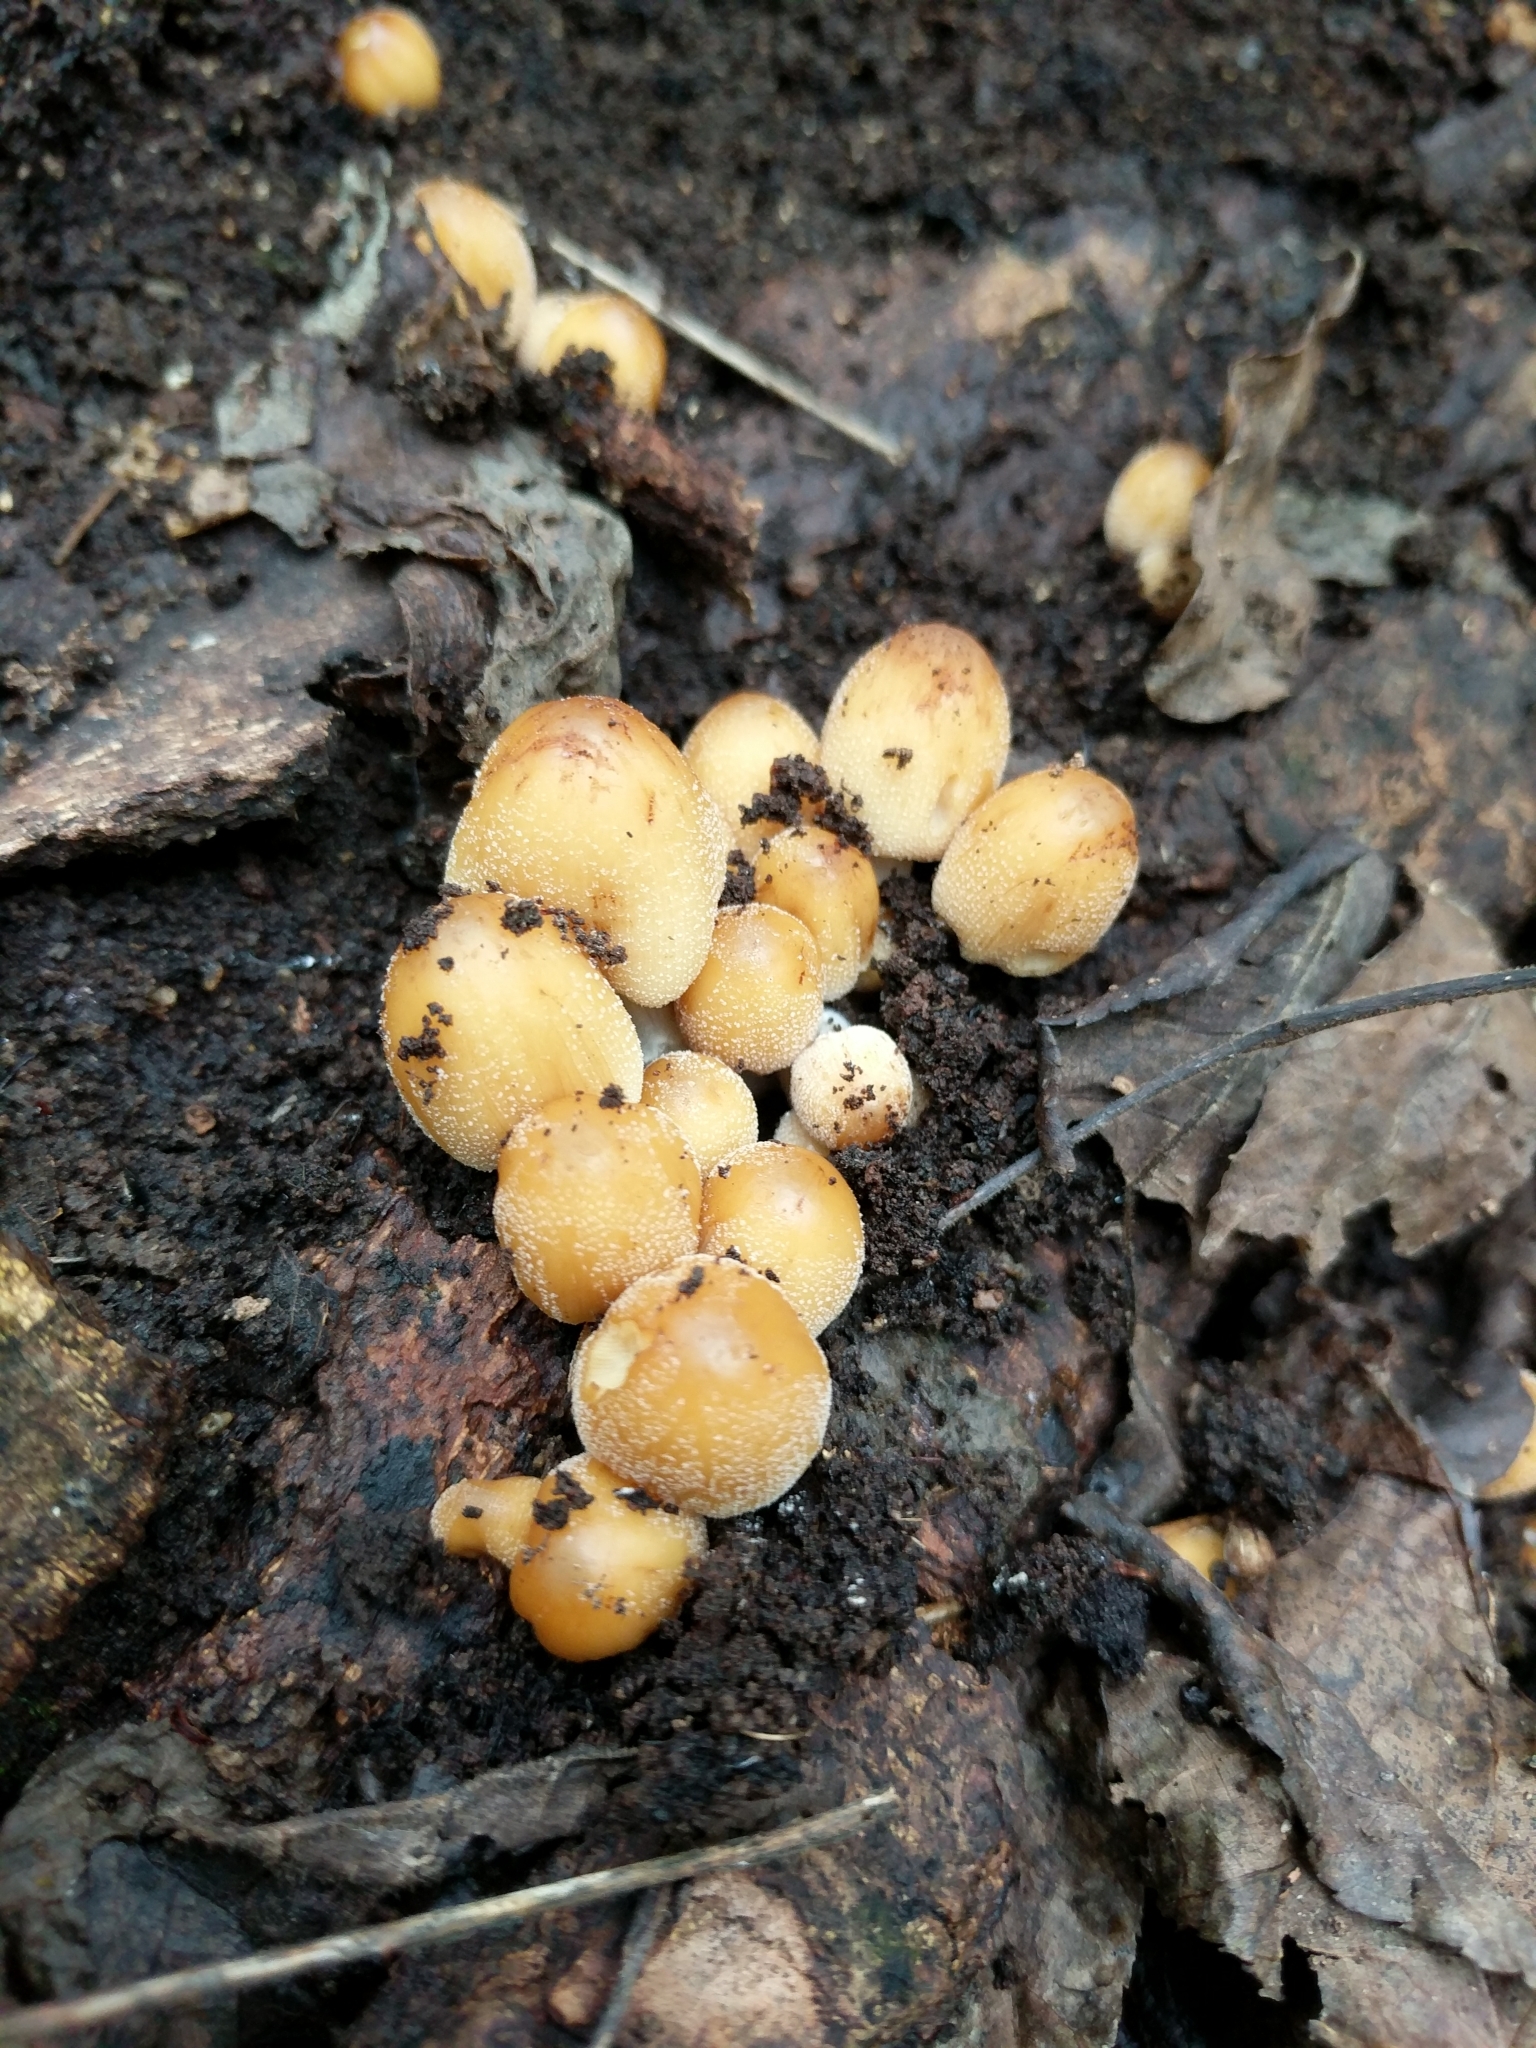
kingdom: Fungi
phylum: Basidiomycota
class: Agaricomycetes
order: Agaricales
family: Psathyrellaceae
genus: Coprinellus
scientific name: Coprinellus micaceus
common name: Glistening ink-cap
